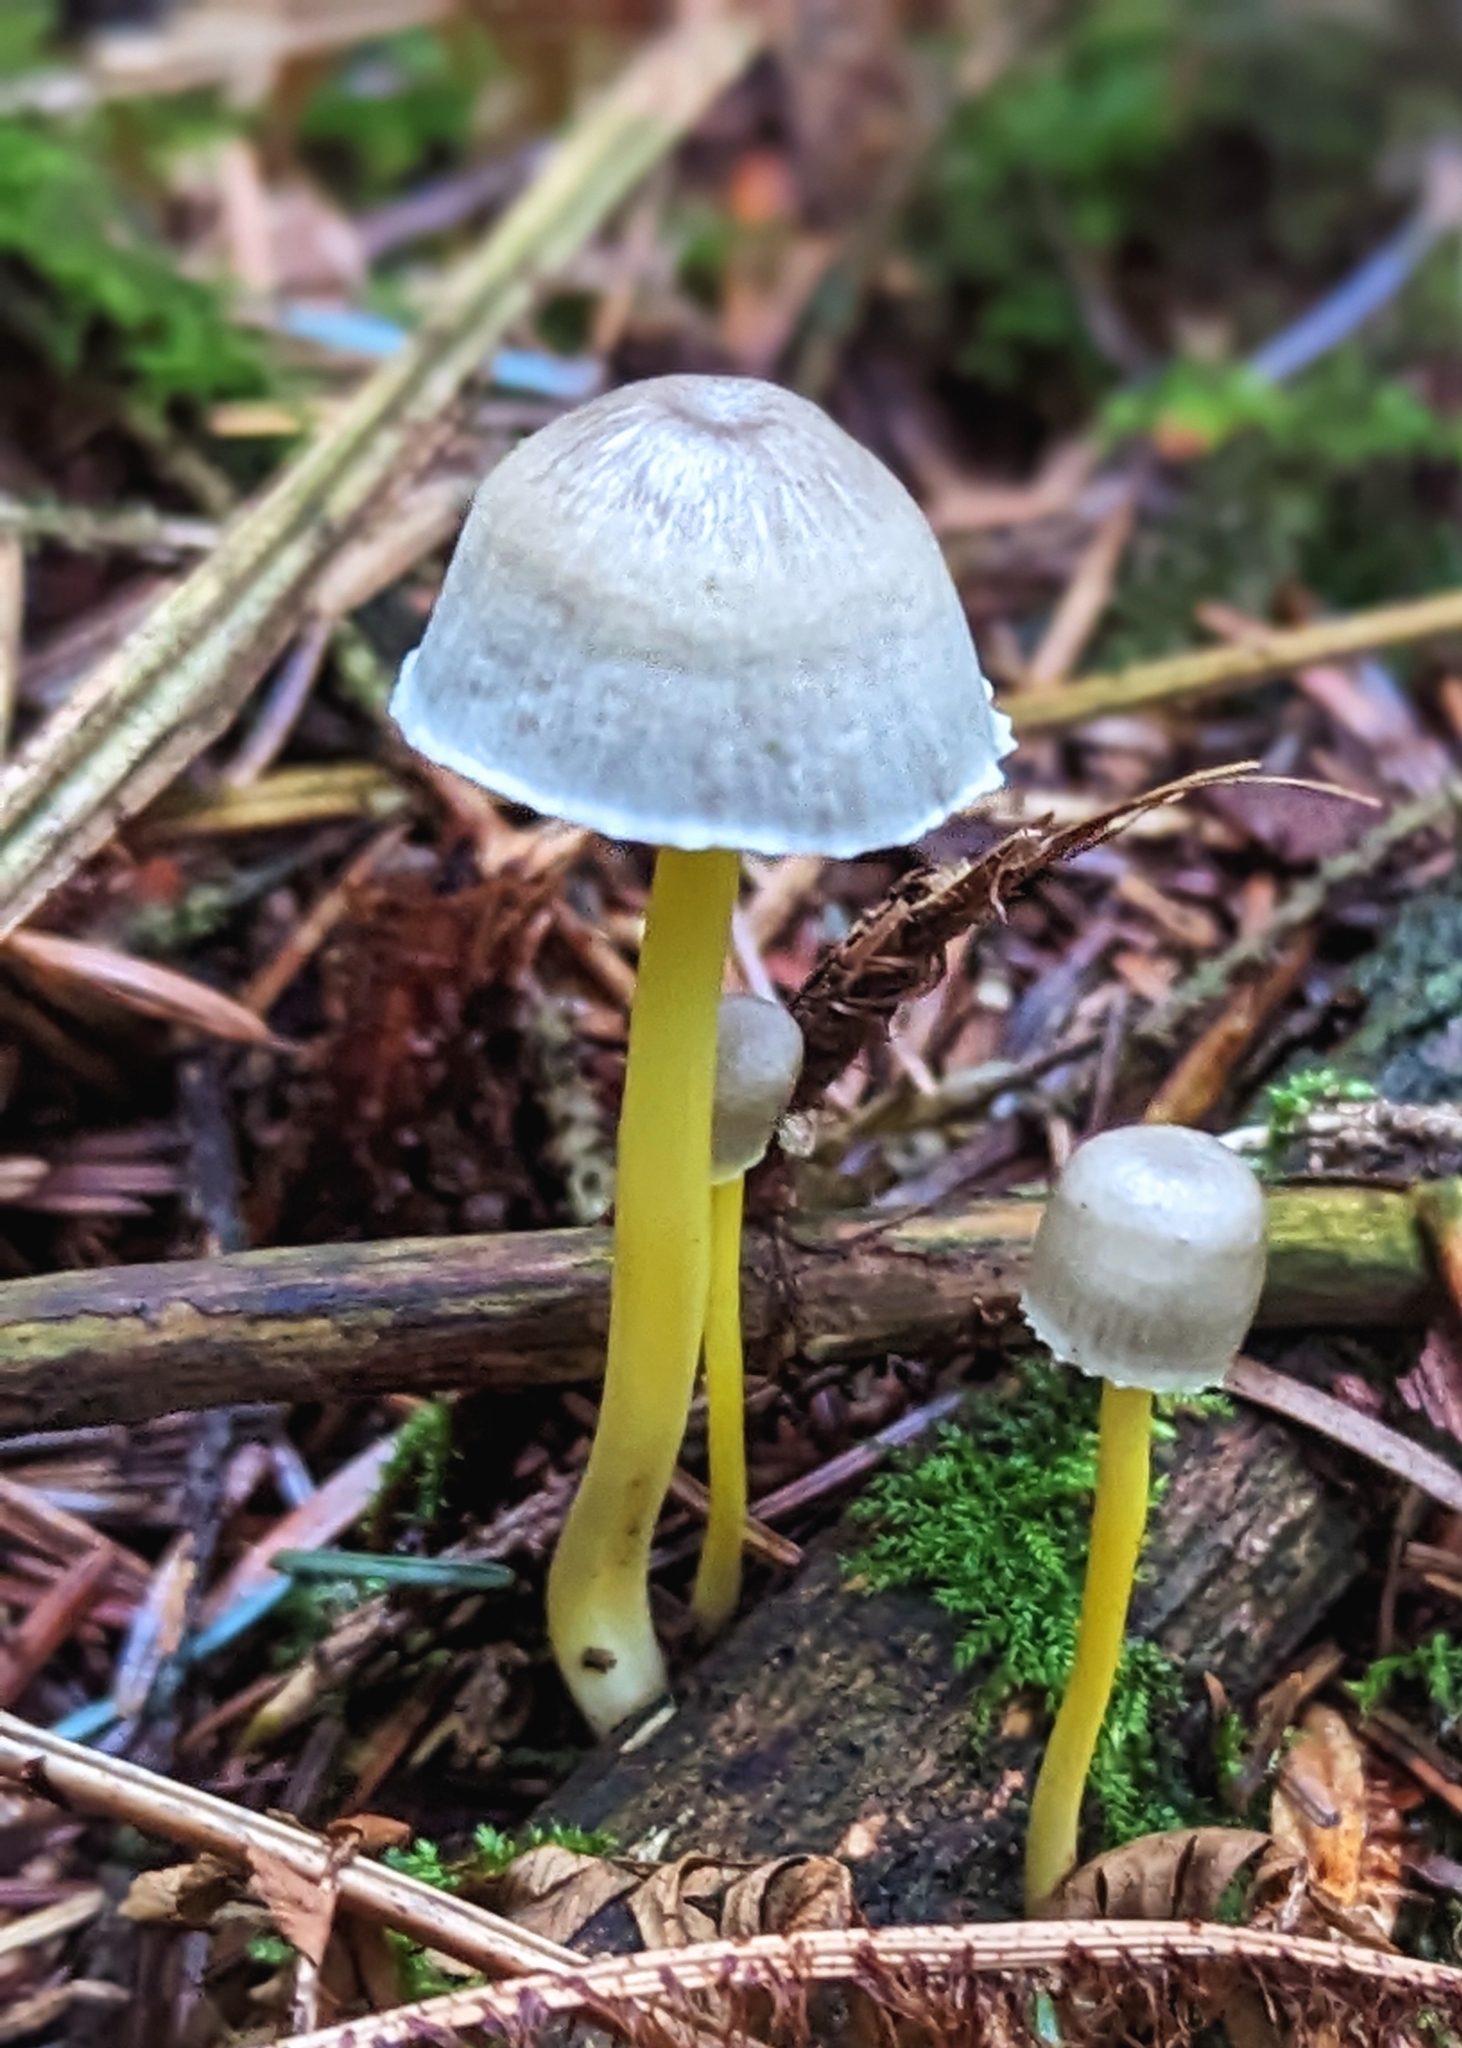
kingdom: Fungi
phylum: Basidiomycota
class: Agaricomycetes
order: Agaricales
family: Mycenaceae
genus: Mycena
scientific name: Mycena epipterygia
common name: Yellowleg bonnet
